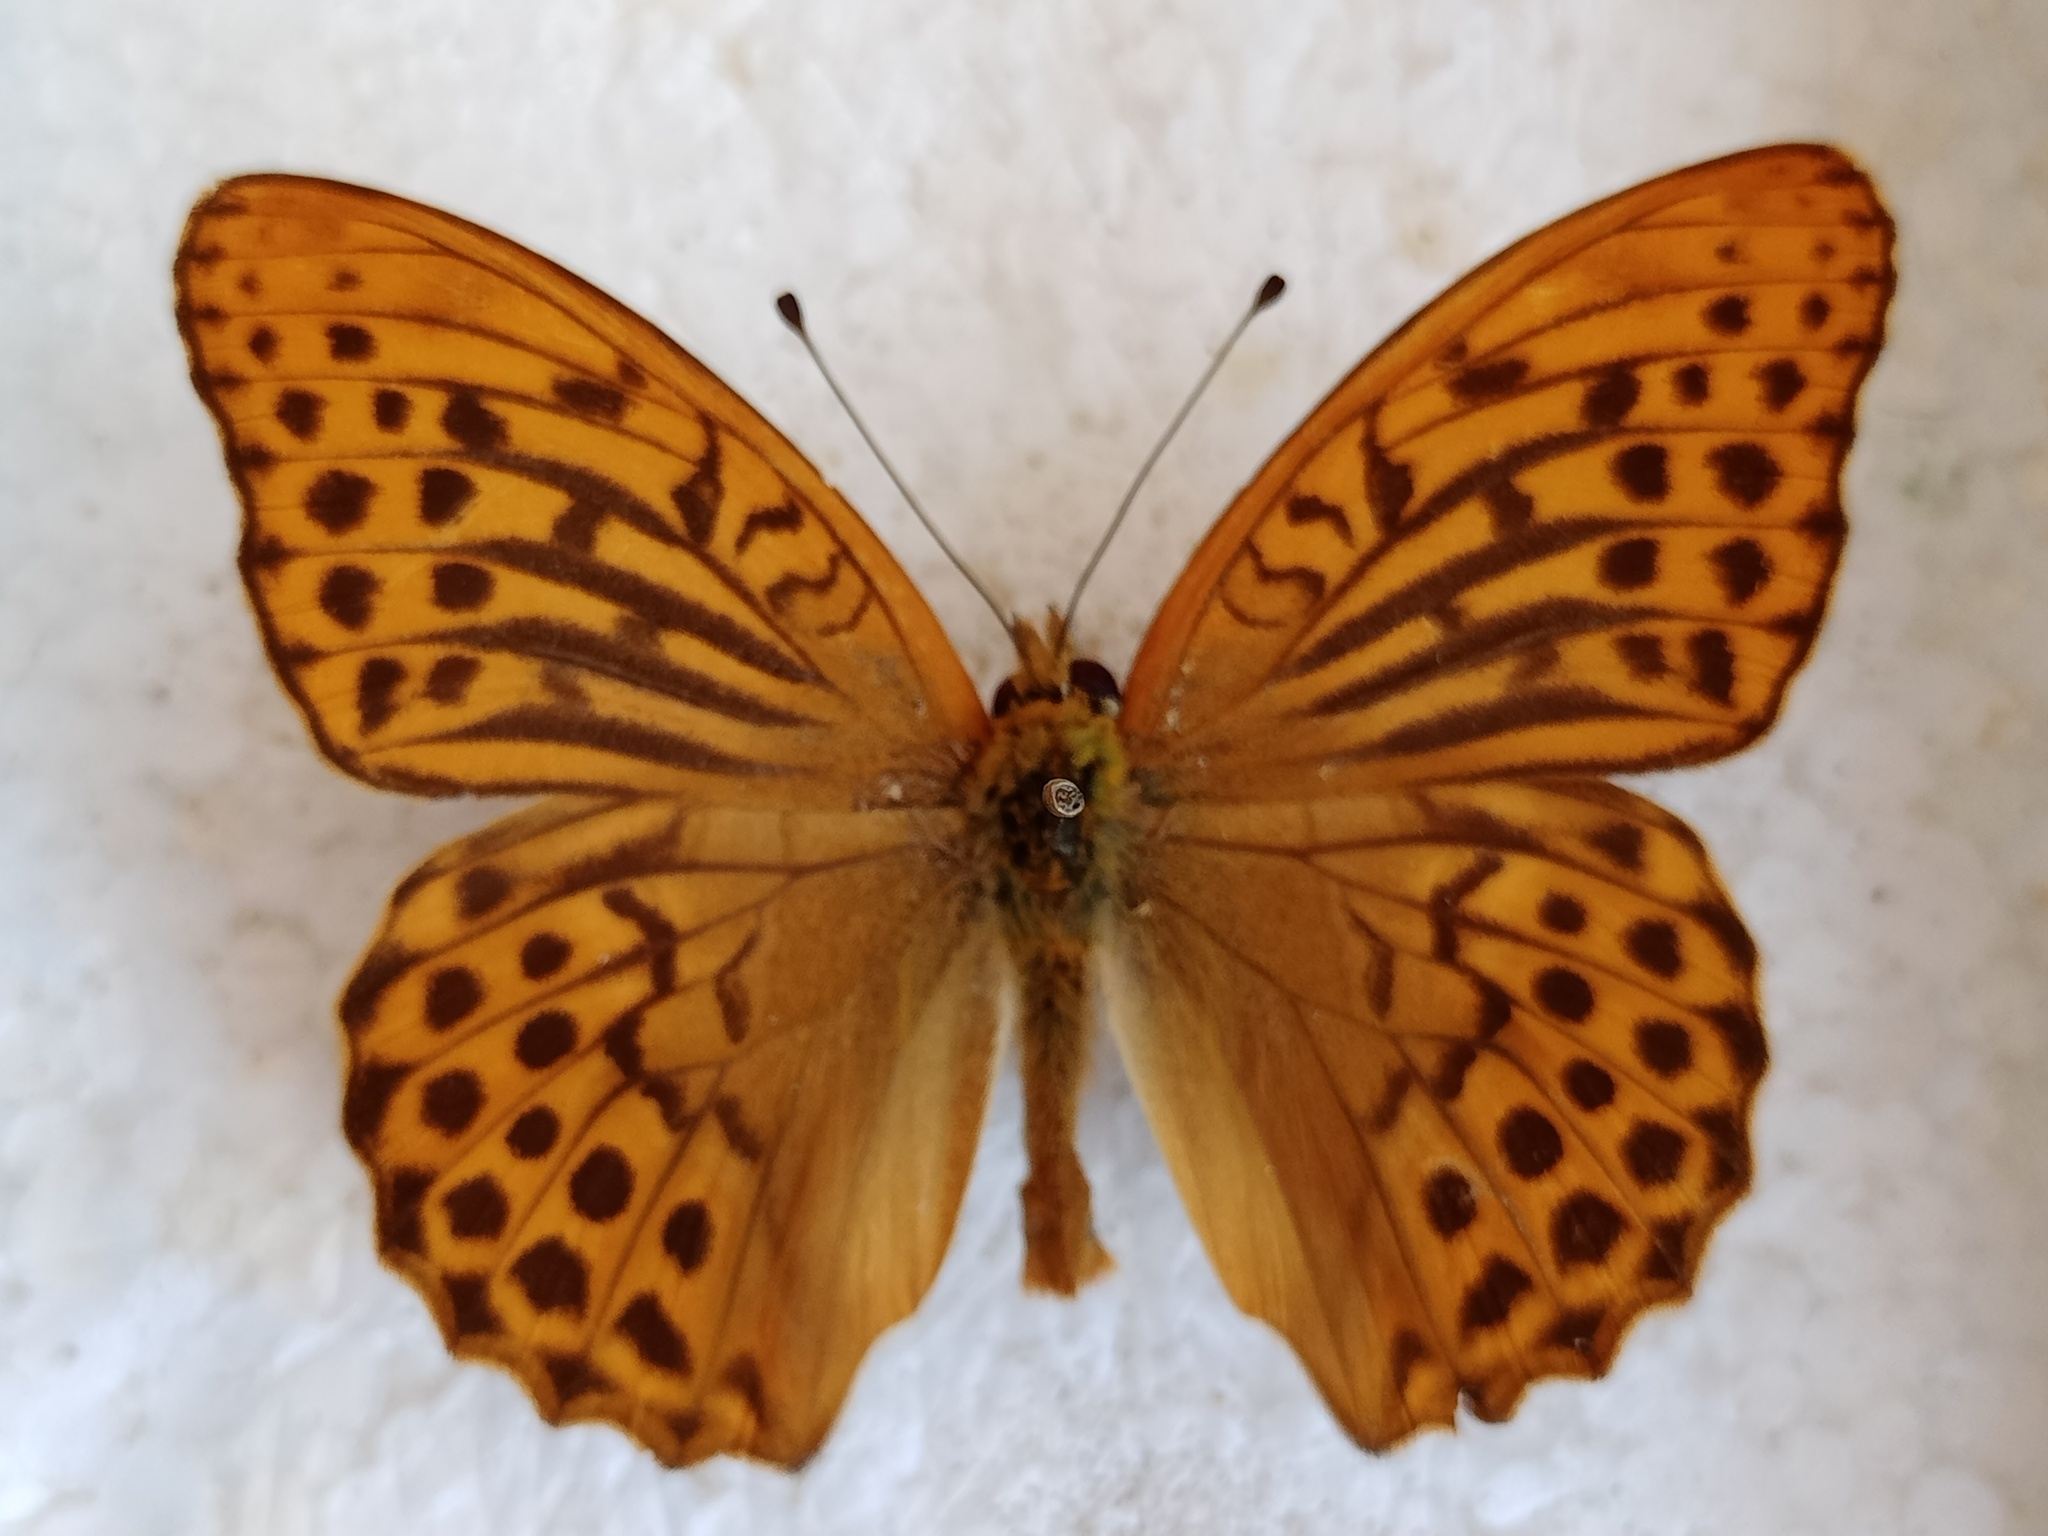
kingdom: Animalia
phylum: Arthropoda
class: Insecta
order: Lepidoptera
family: Nymphalidae
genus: Argynnis
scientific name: Argynnis paphia
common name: Silver-washed fritillary
